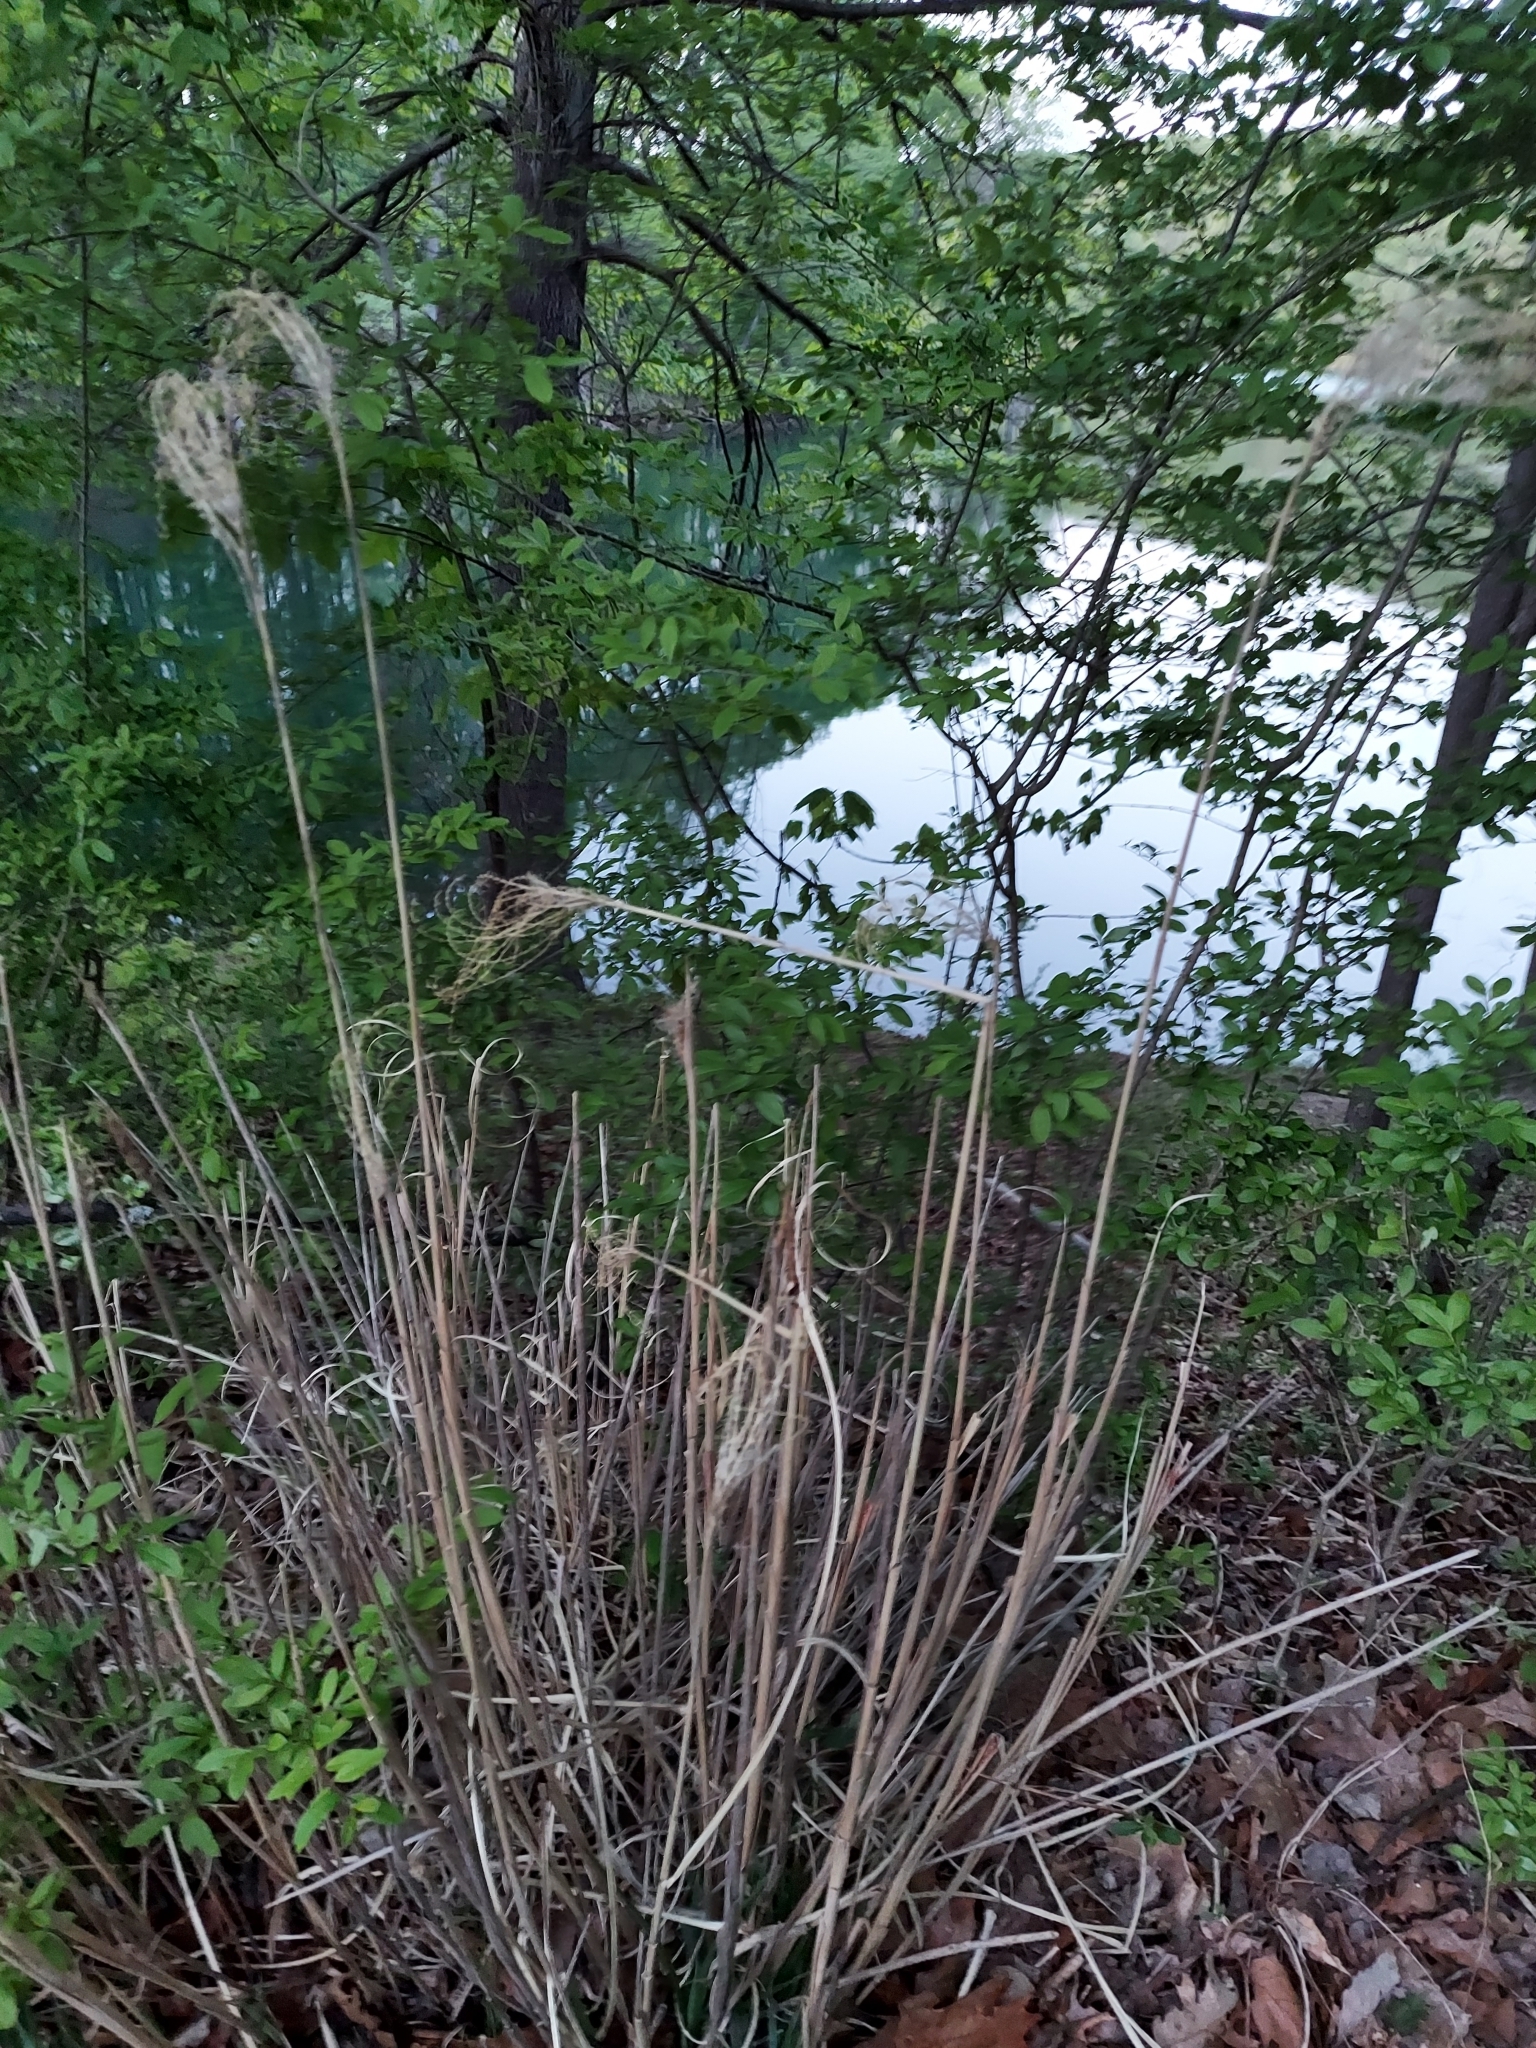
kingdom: Plantae
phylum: Tracheophyta
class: Liliopsida
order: Poales
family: Poaceae
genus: Miscanthus
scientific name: Miscanthus sinensis
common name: Chinese silvergrass
